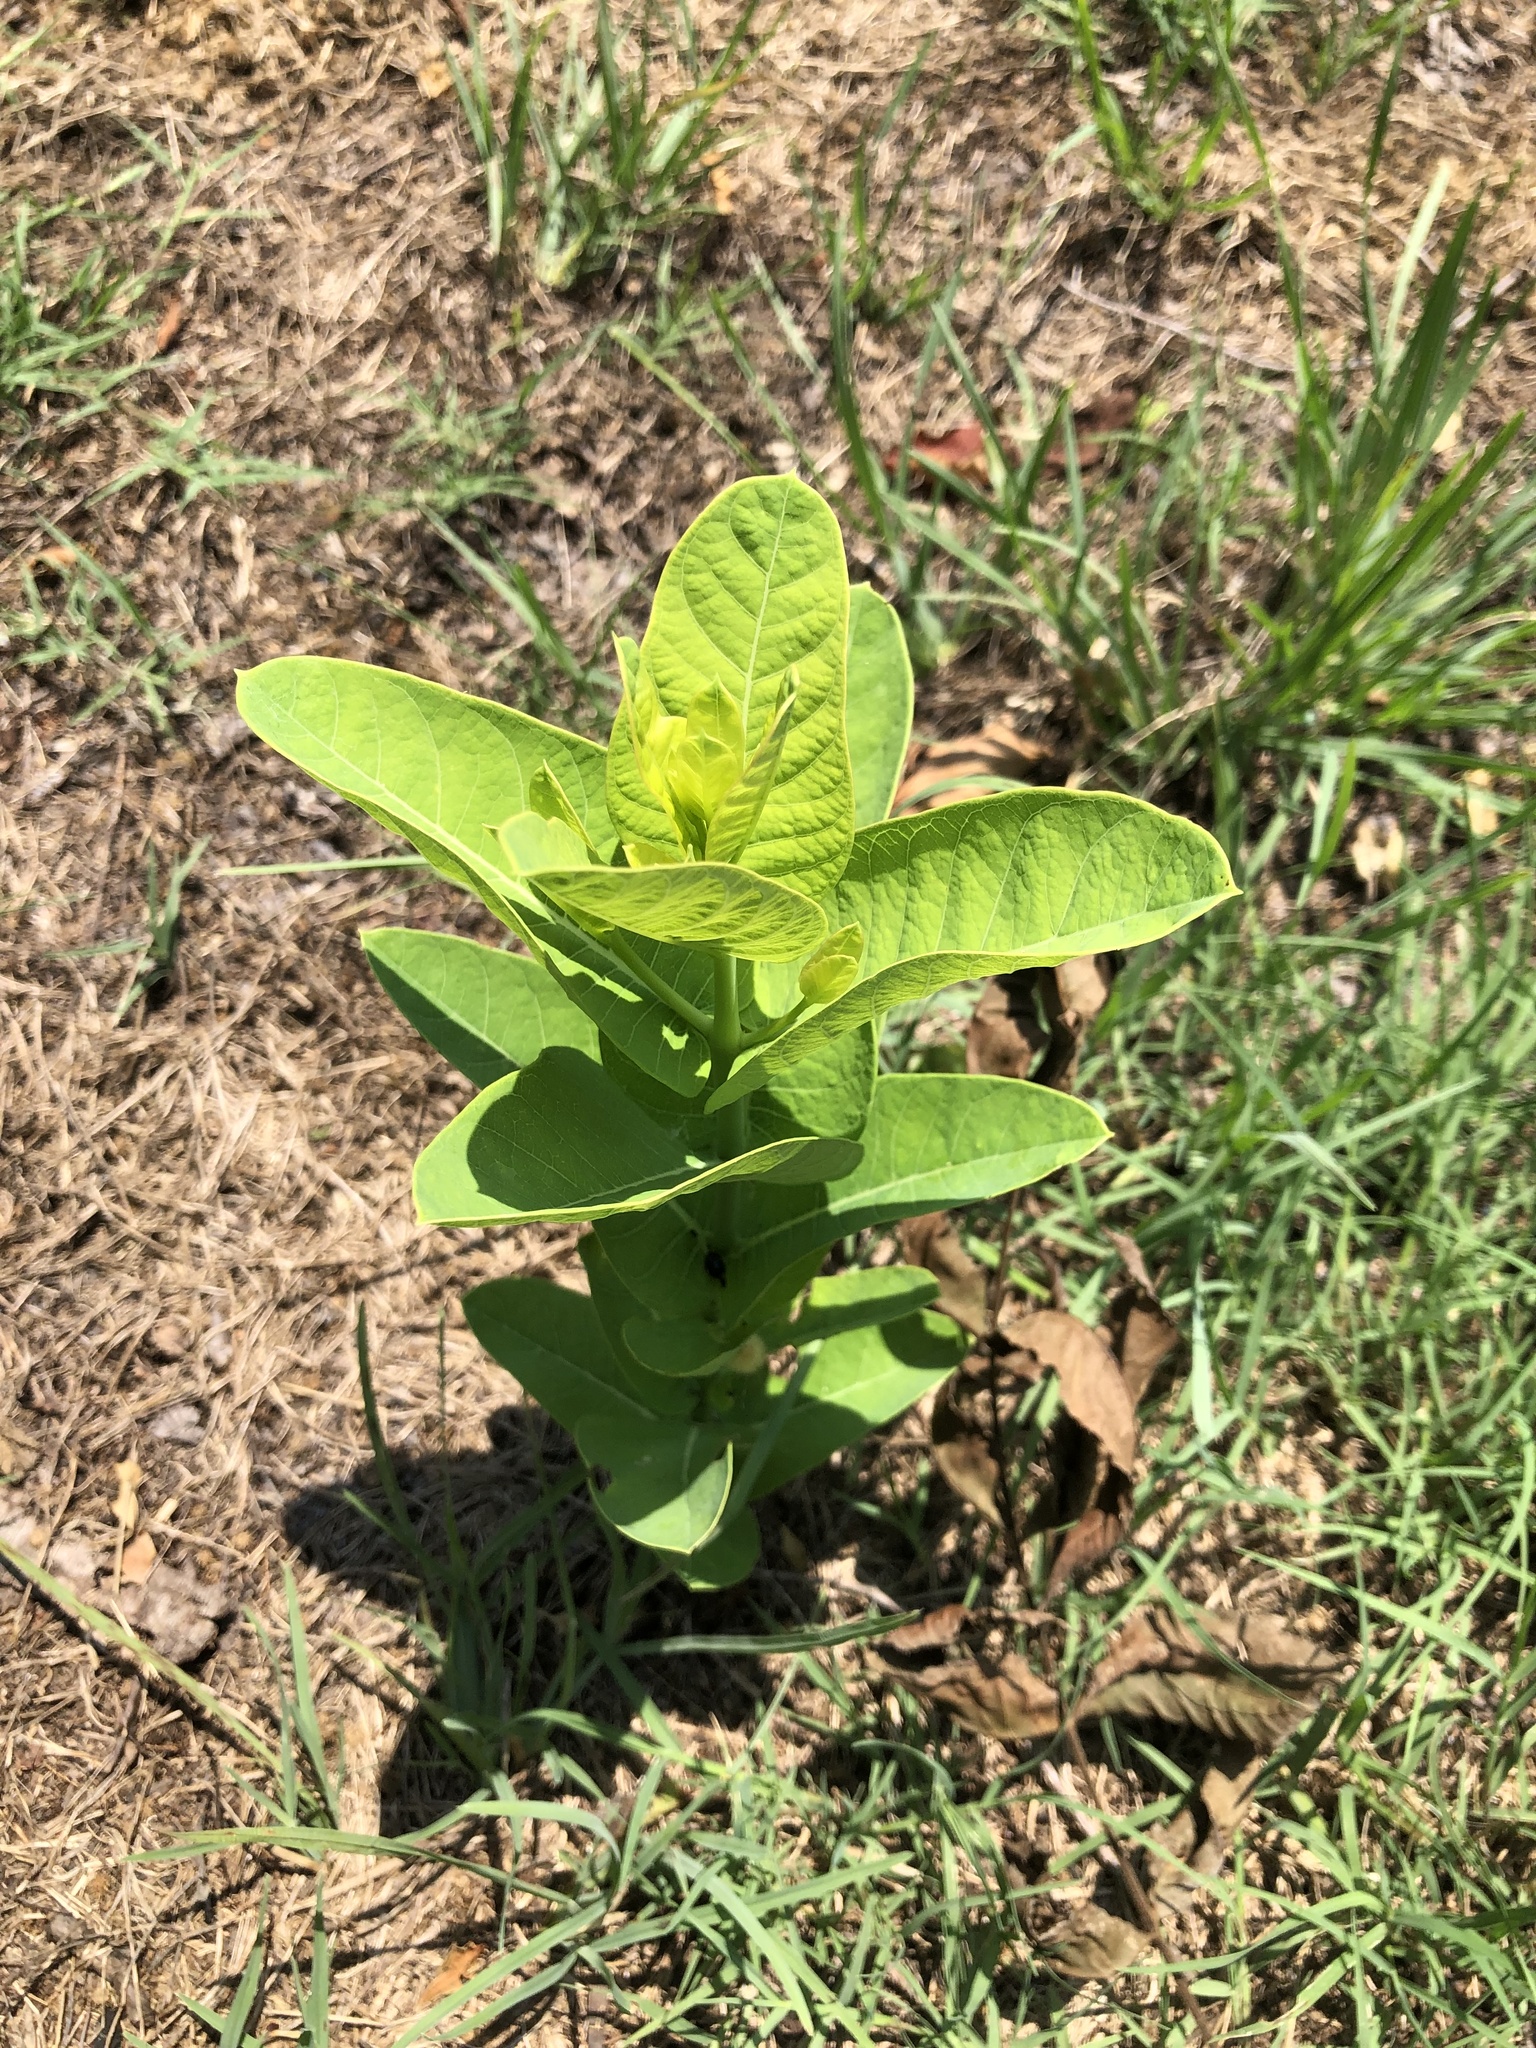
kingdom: Plantae
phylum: Tracheophyta
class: Magnoliopsida
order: Gentianales
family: Apocynaceae
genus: Apocynum
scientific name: Apocynum cannabinum
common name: Hemp dogbane
